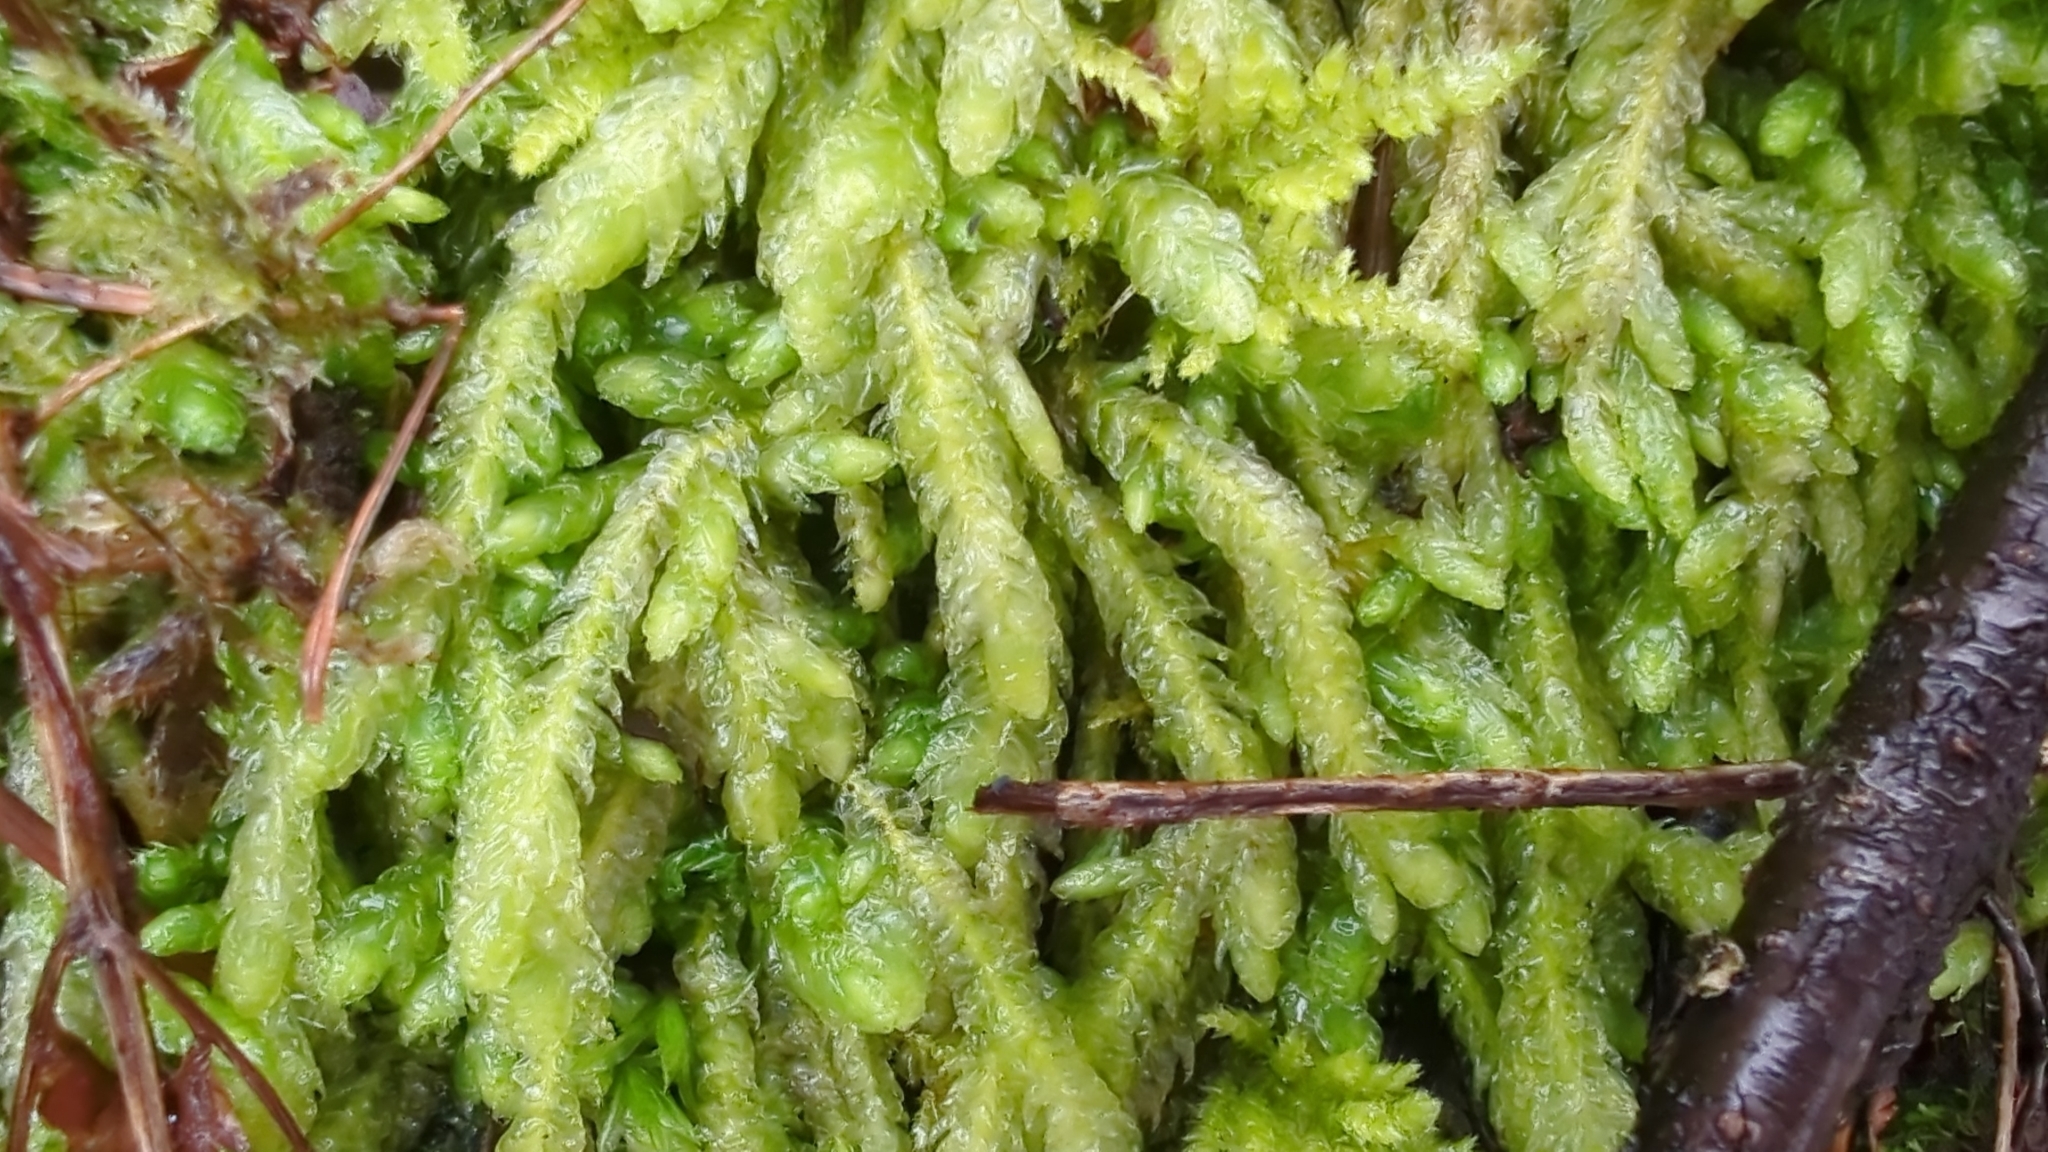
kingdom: Plantae
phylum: Bryophyta
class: Bryopsida
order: Hypnales
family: Plagiotheciaceae
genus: Plagiothecium
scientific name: Plagiothecium undulatum
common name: Waved silk-moss
